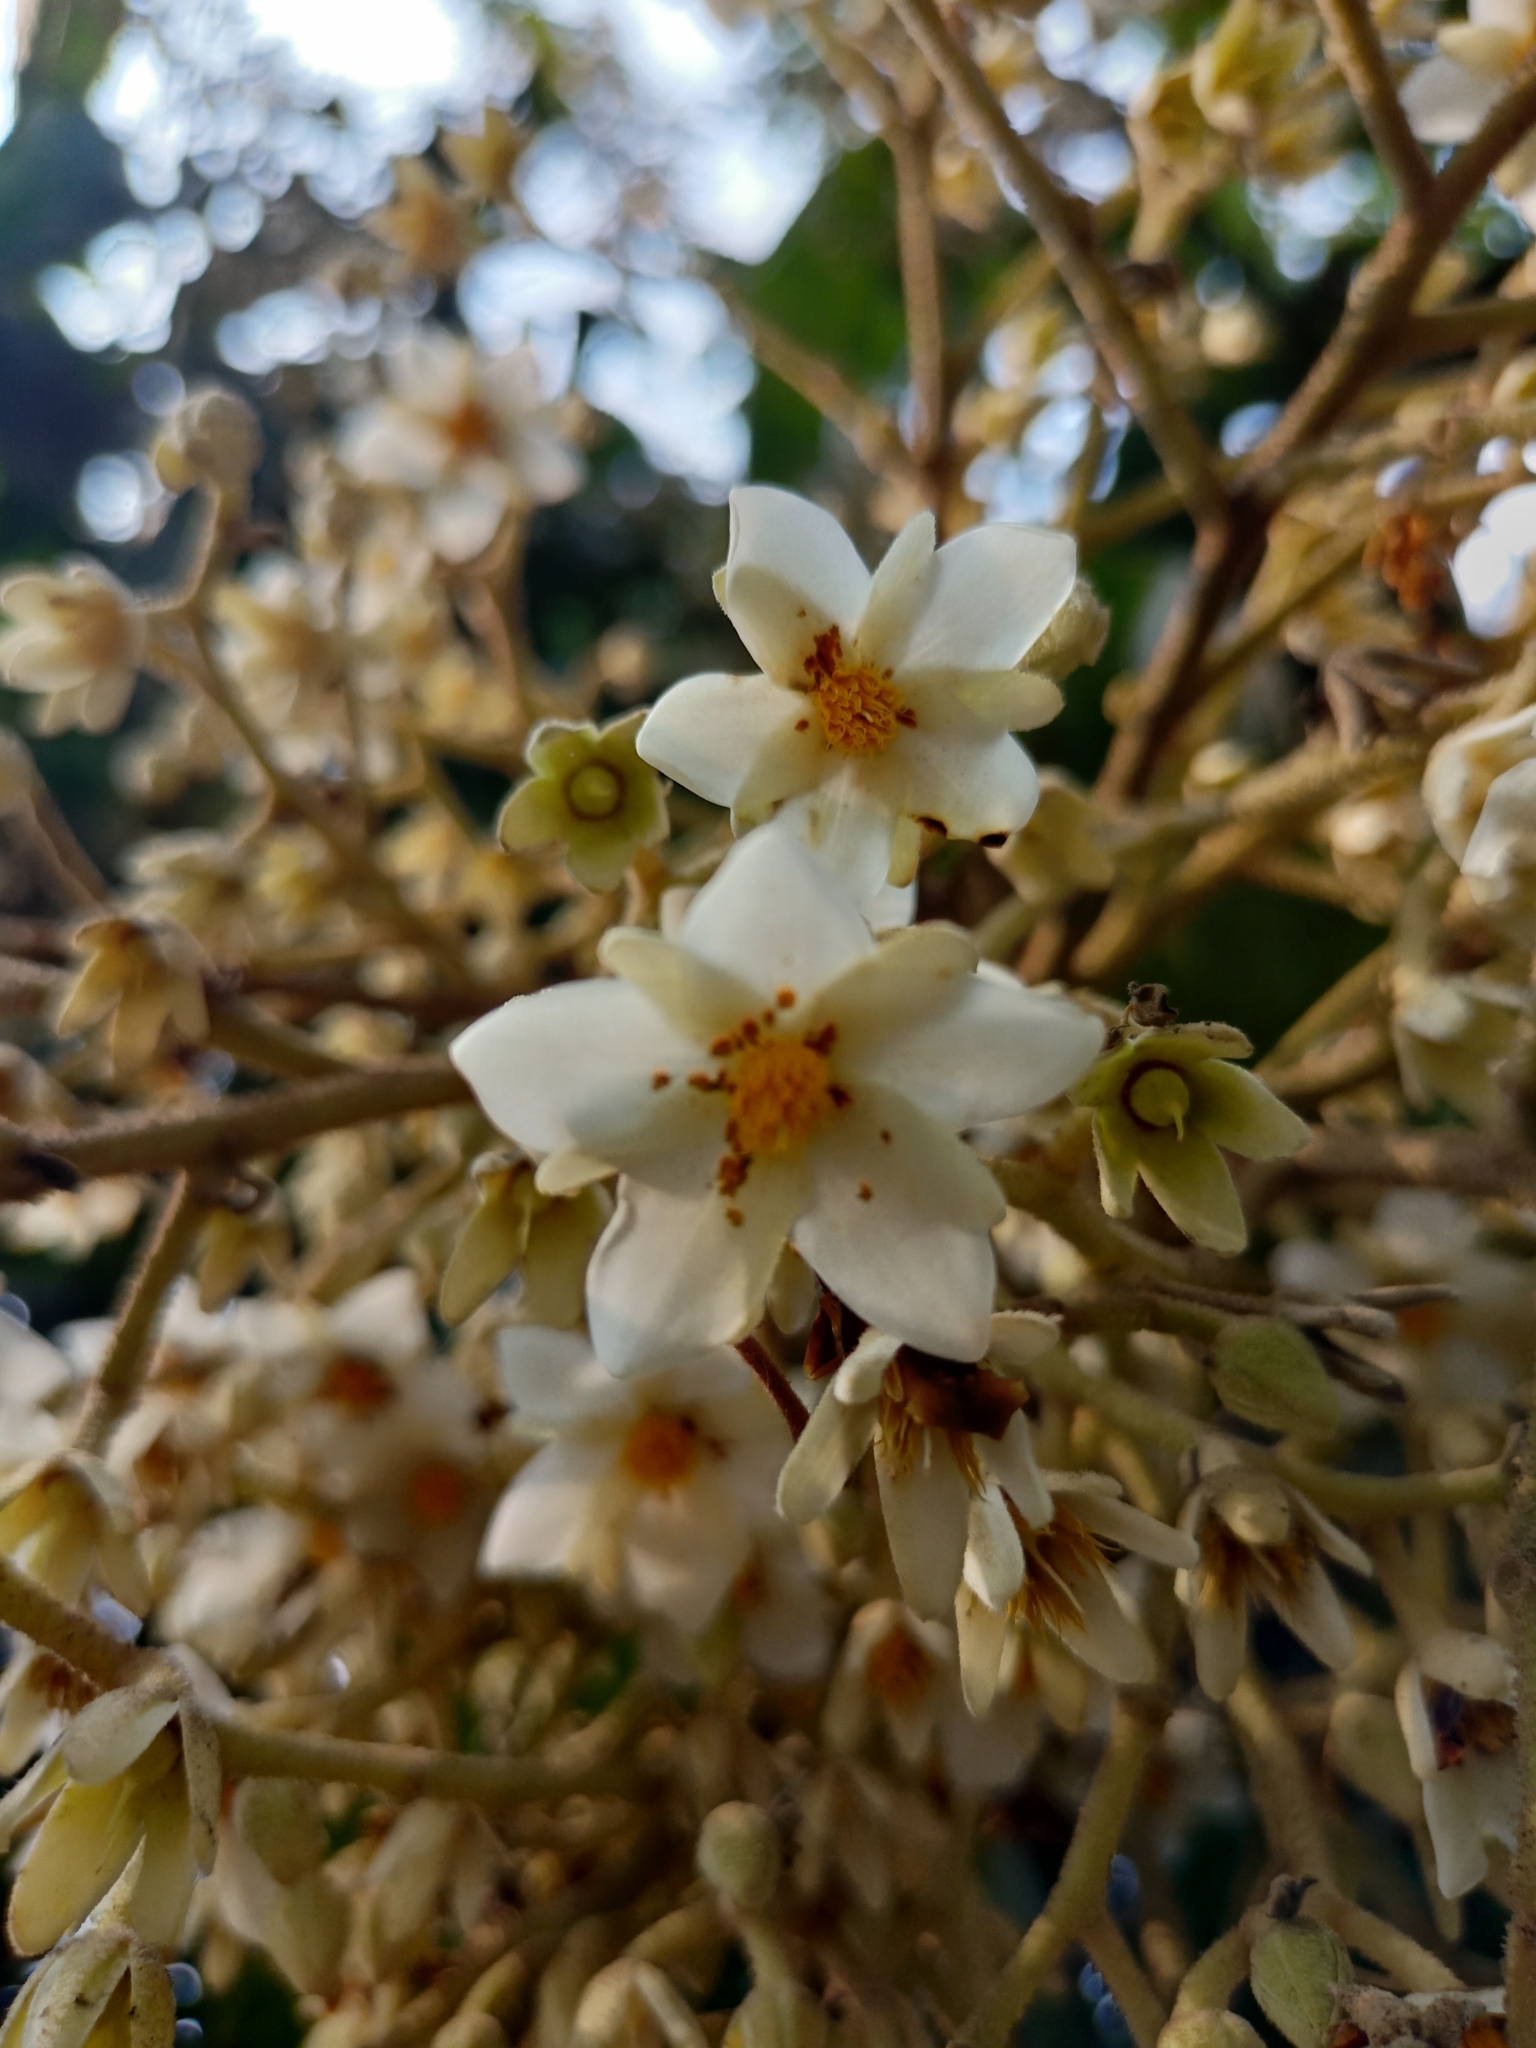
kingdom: Plantae
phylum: Tracheophyta
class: Magnoliopsida
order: Malvales
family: Dipterocarpaceae
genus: Vateria
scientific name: Vateria indica
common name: White dammar
